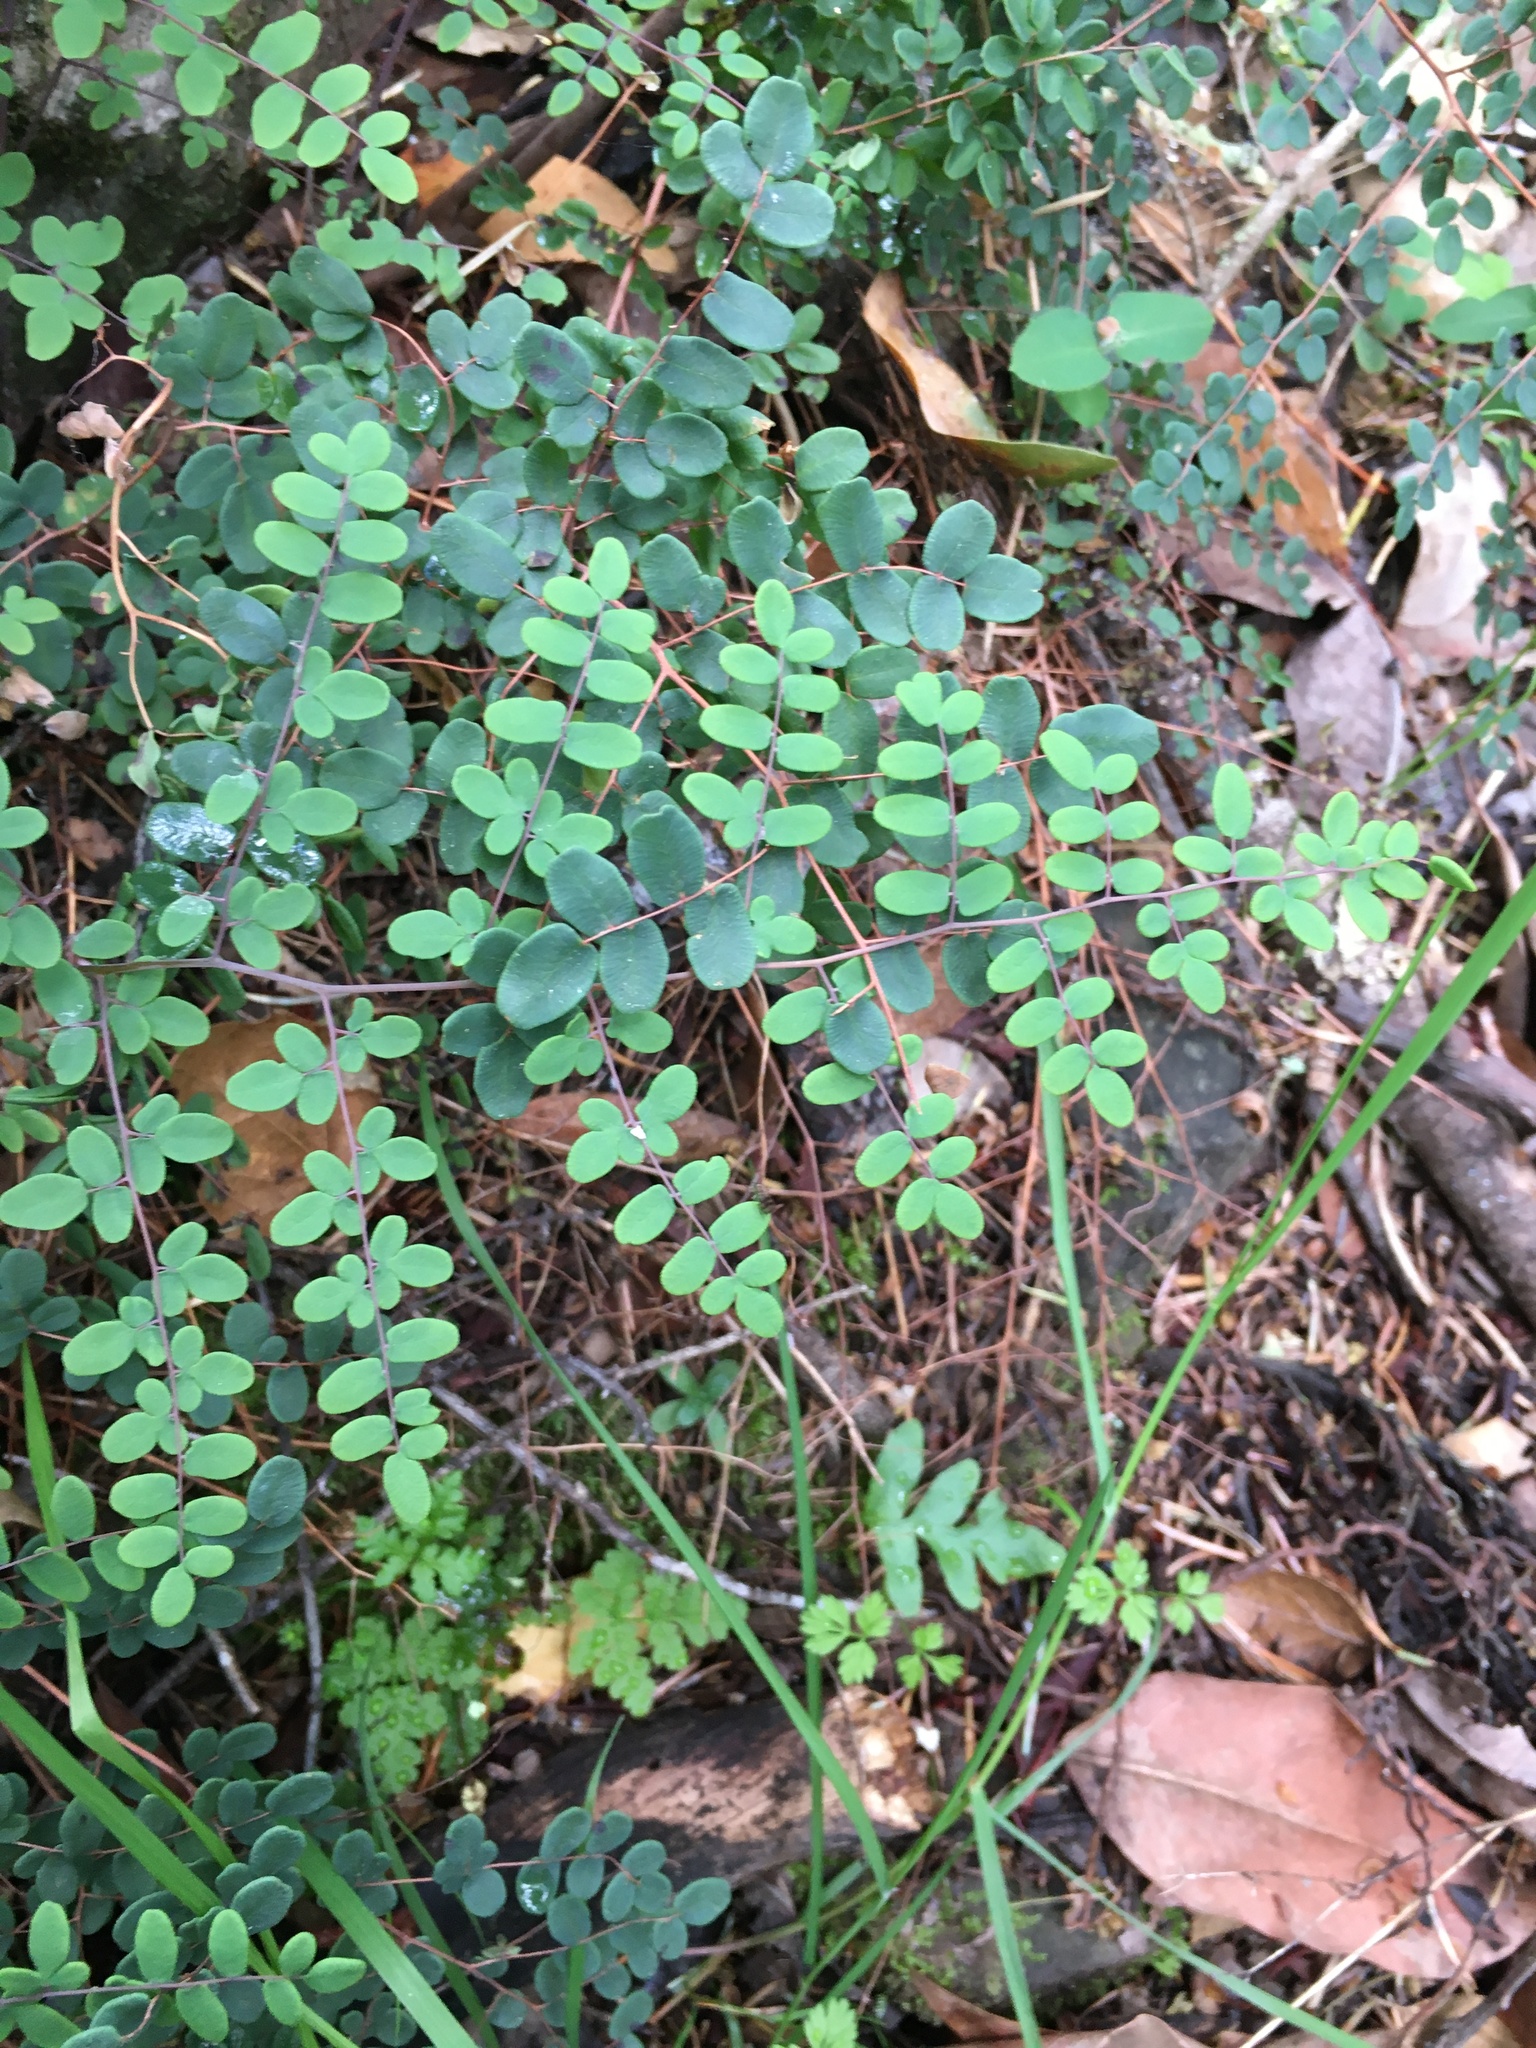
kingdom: Plantae
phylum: Tracheophyta
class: Polypodiopsida
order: Polypodiales
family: Pteridaceae
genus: Pellaea
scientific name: Pellaea andromedifolia
